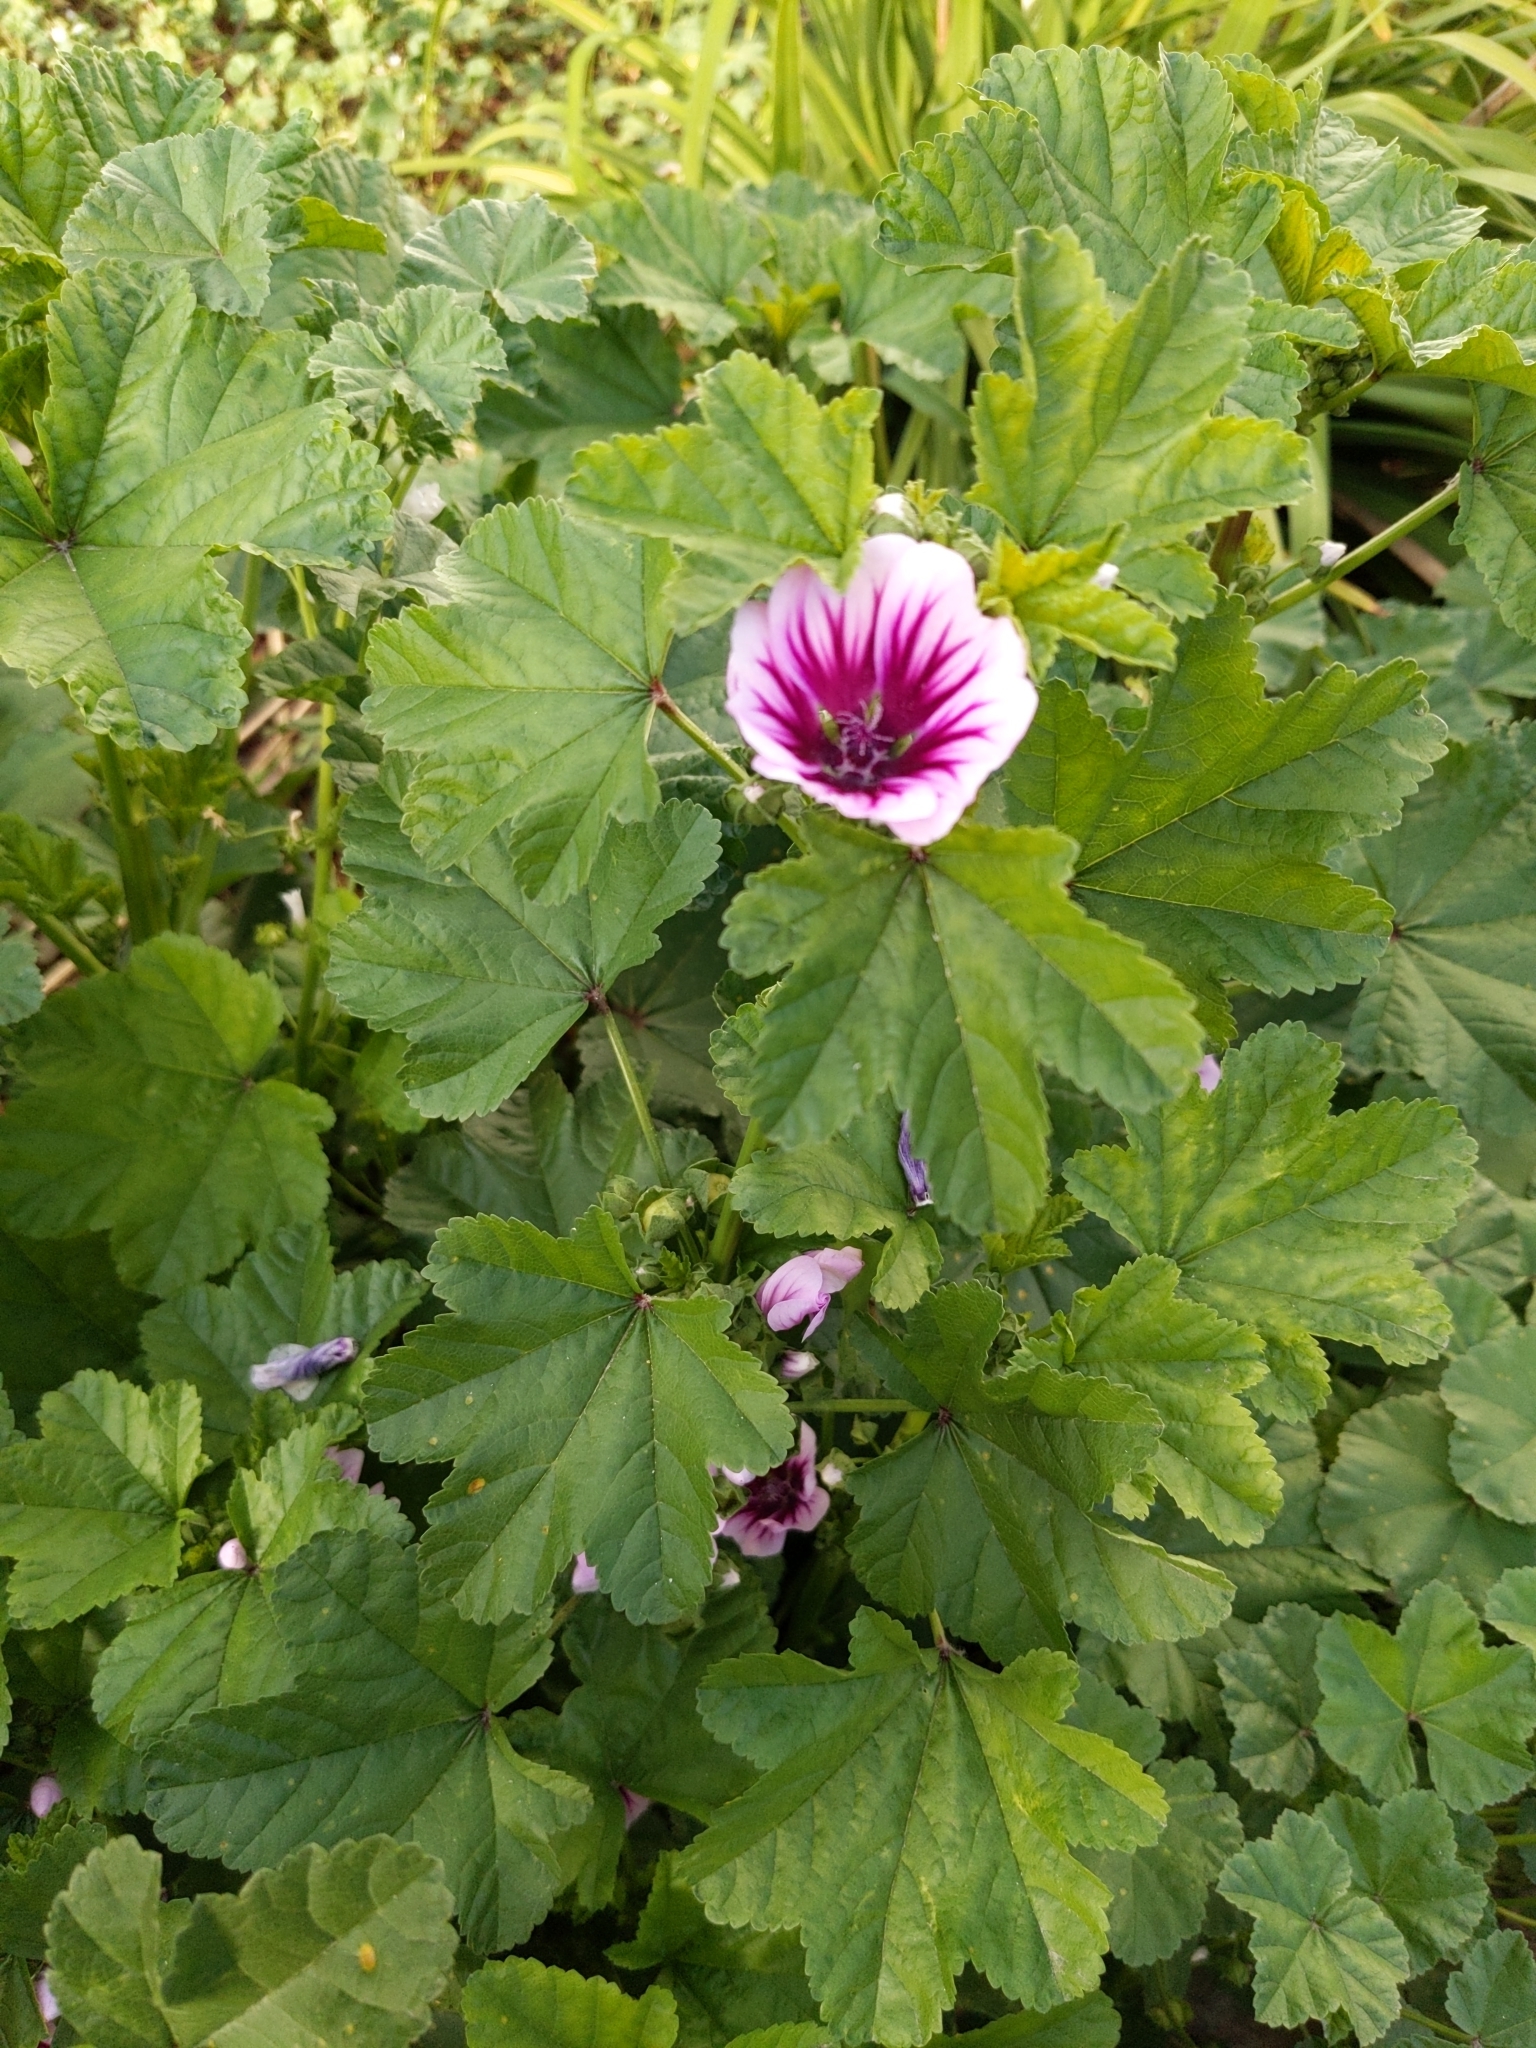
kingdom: Plantae
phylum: Tracheophyta
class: Magnoliopsida
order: Malvales
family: Malvaceae
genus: Malva
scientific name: Malva sylvestris
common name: Common mallow
